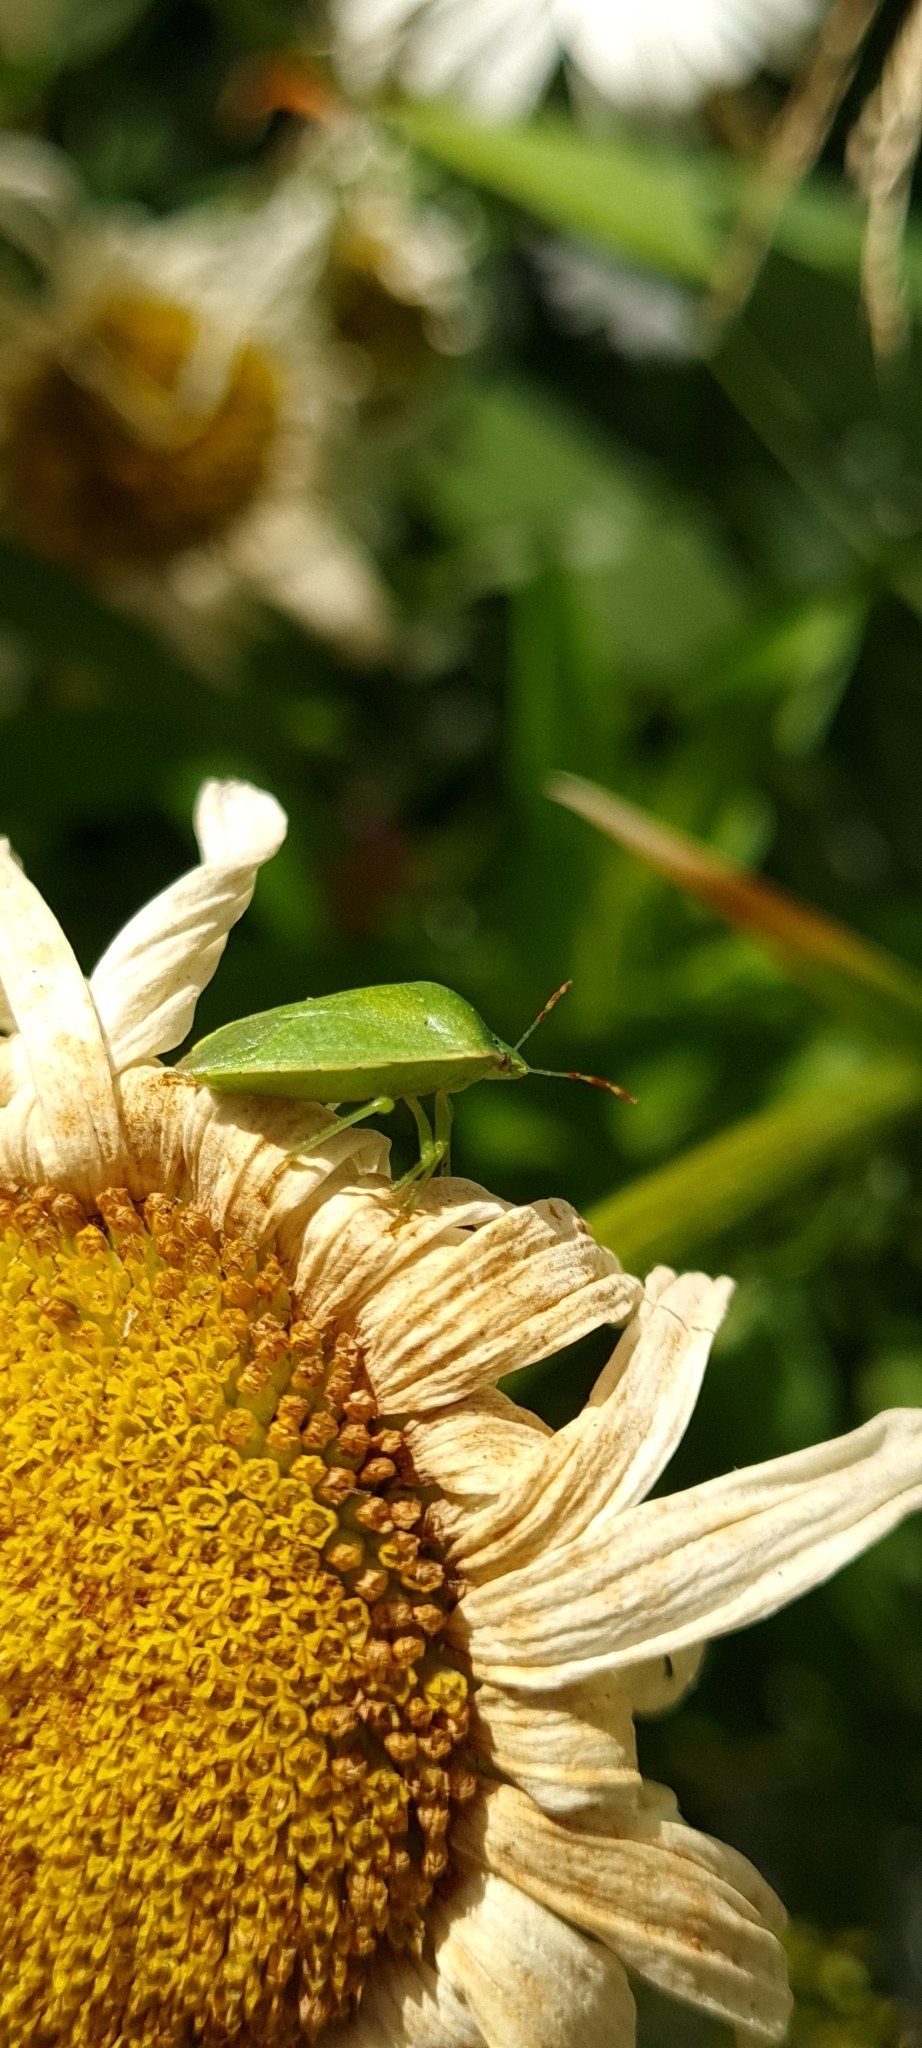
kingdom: Animalia
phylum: Arthropoda
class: Insecta
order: Hemiptera
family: Pentatomidae
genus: Nezara
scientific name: Nezara viridula
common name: Southern green stink bug
